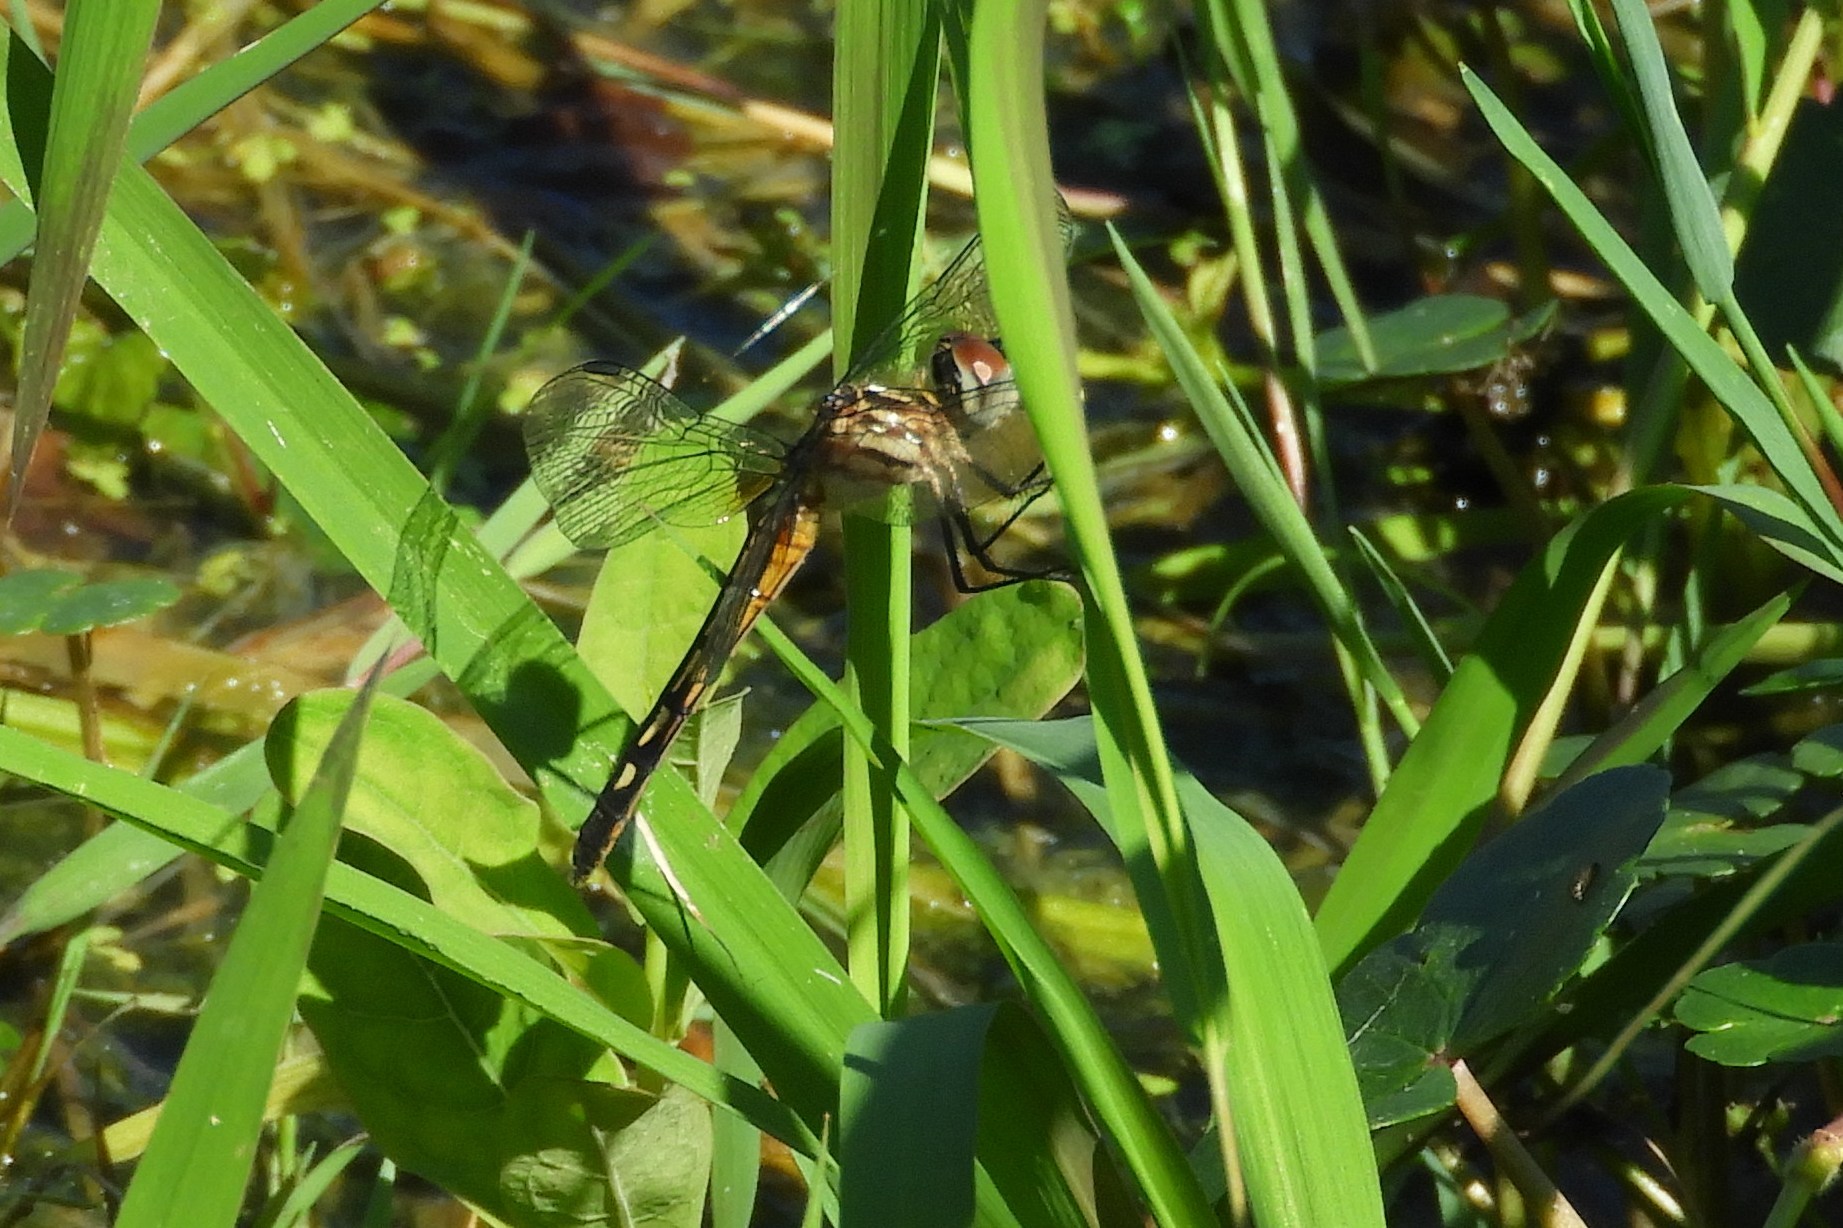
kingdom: Animalia
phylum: Arthropoda
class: Insecta
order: Odonata
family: Libellulidae
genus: Pachydiplax
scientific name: Pachydiplax longipennis
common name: Blue dasher
